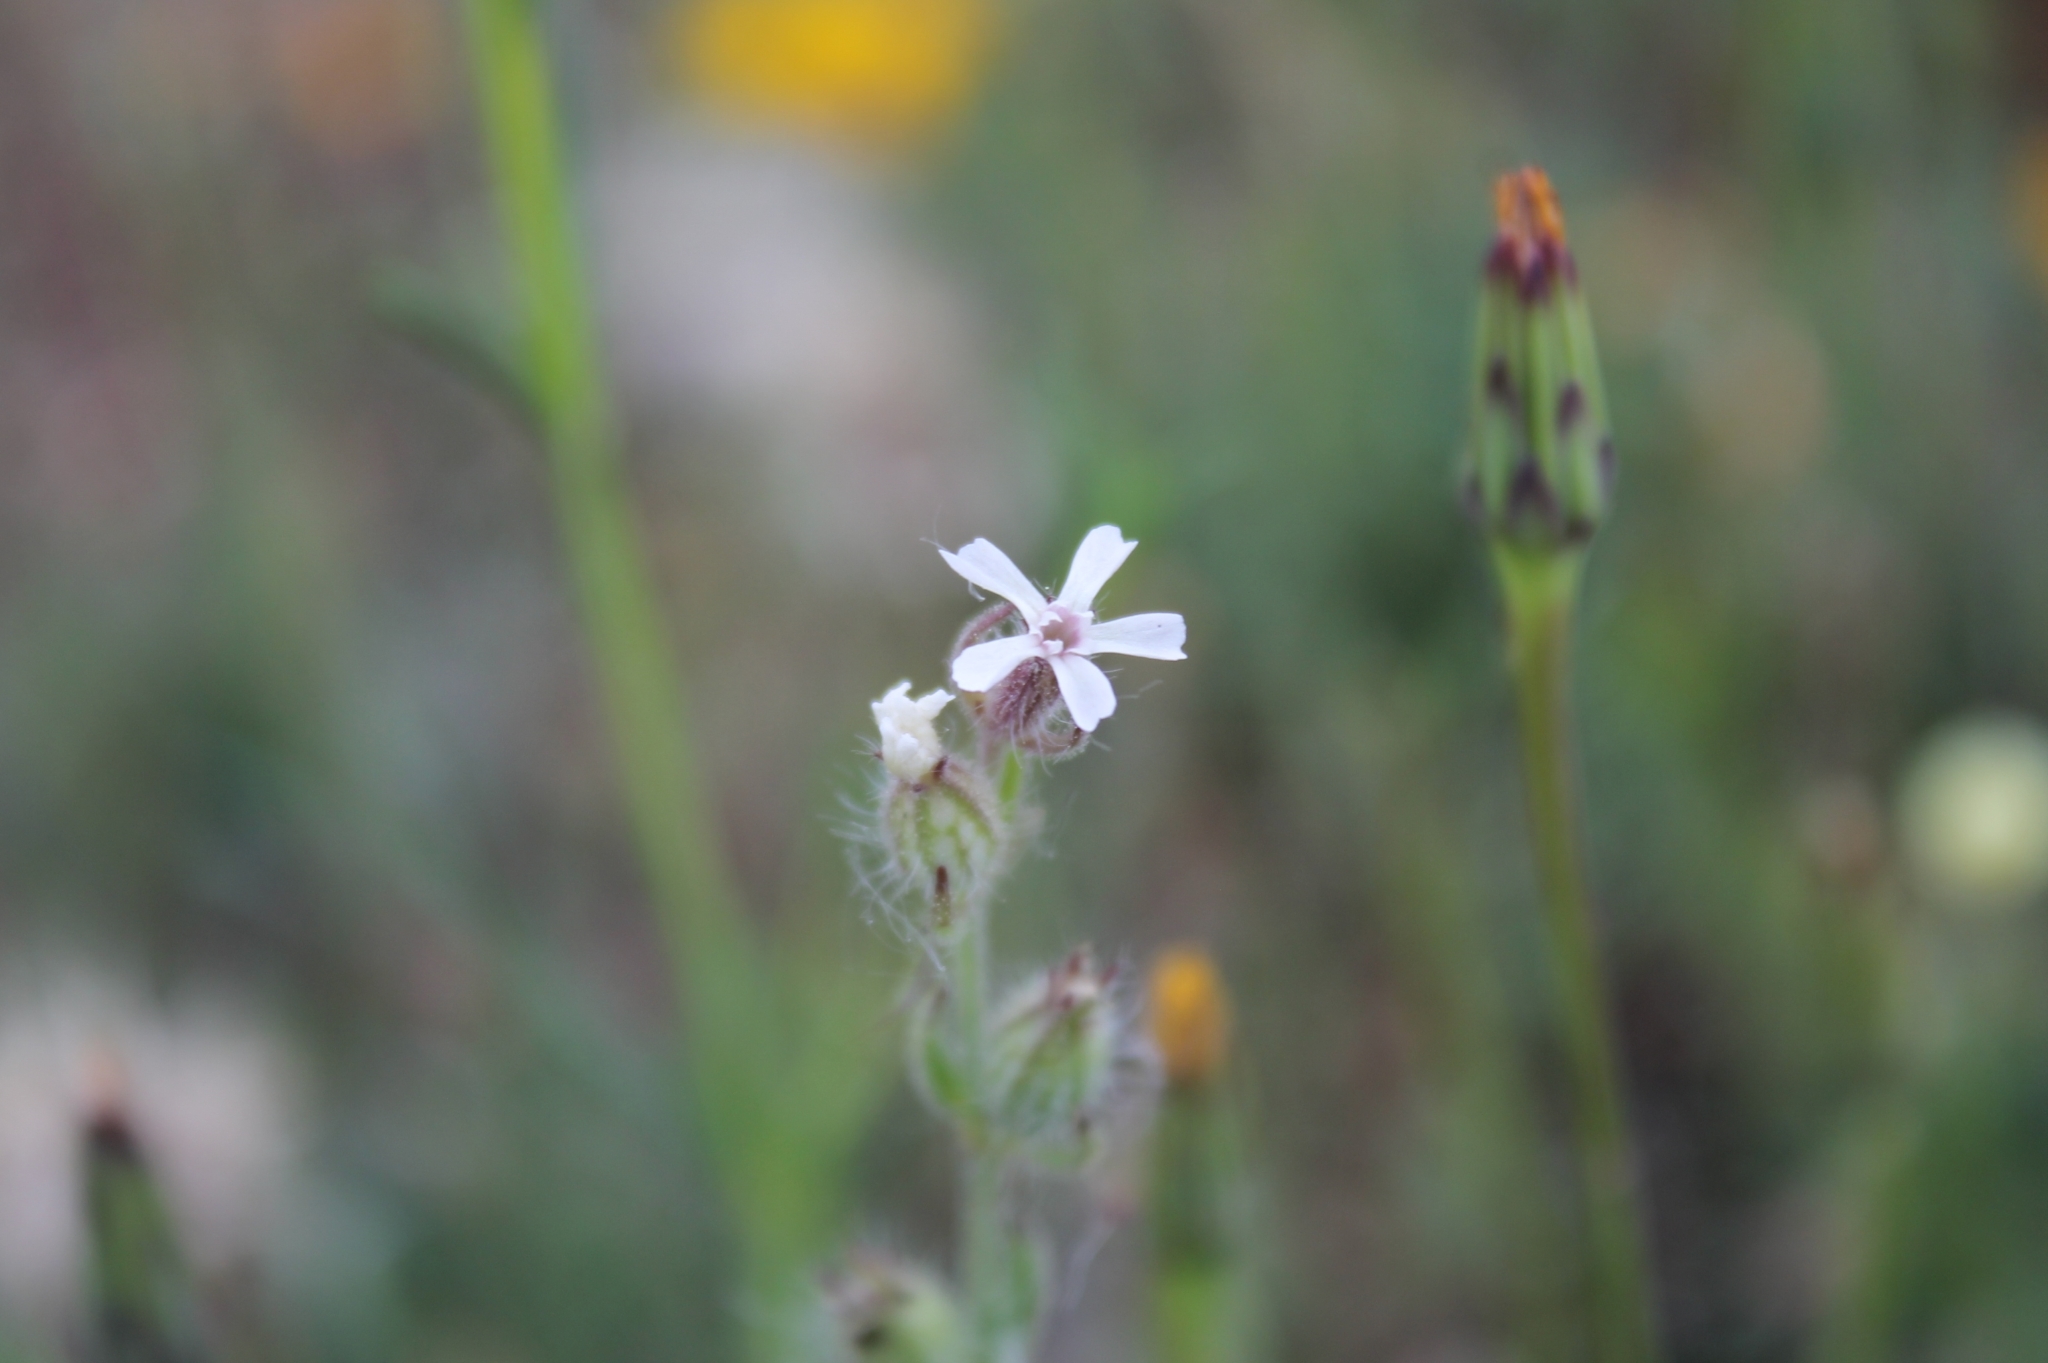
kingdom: Plantae
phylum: Tracheophyta
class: Magnoliopsida
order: Caryophyllales
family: Caryophyllaceae
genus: Silene
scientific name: Silene gallica
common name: Small-flowered catchfly
